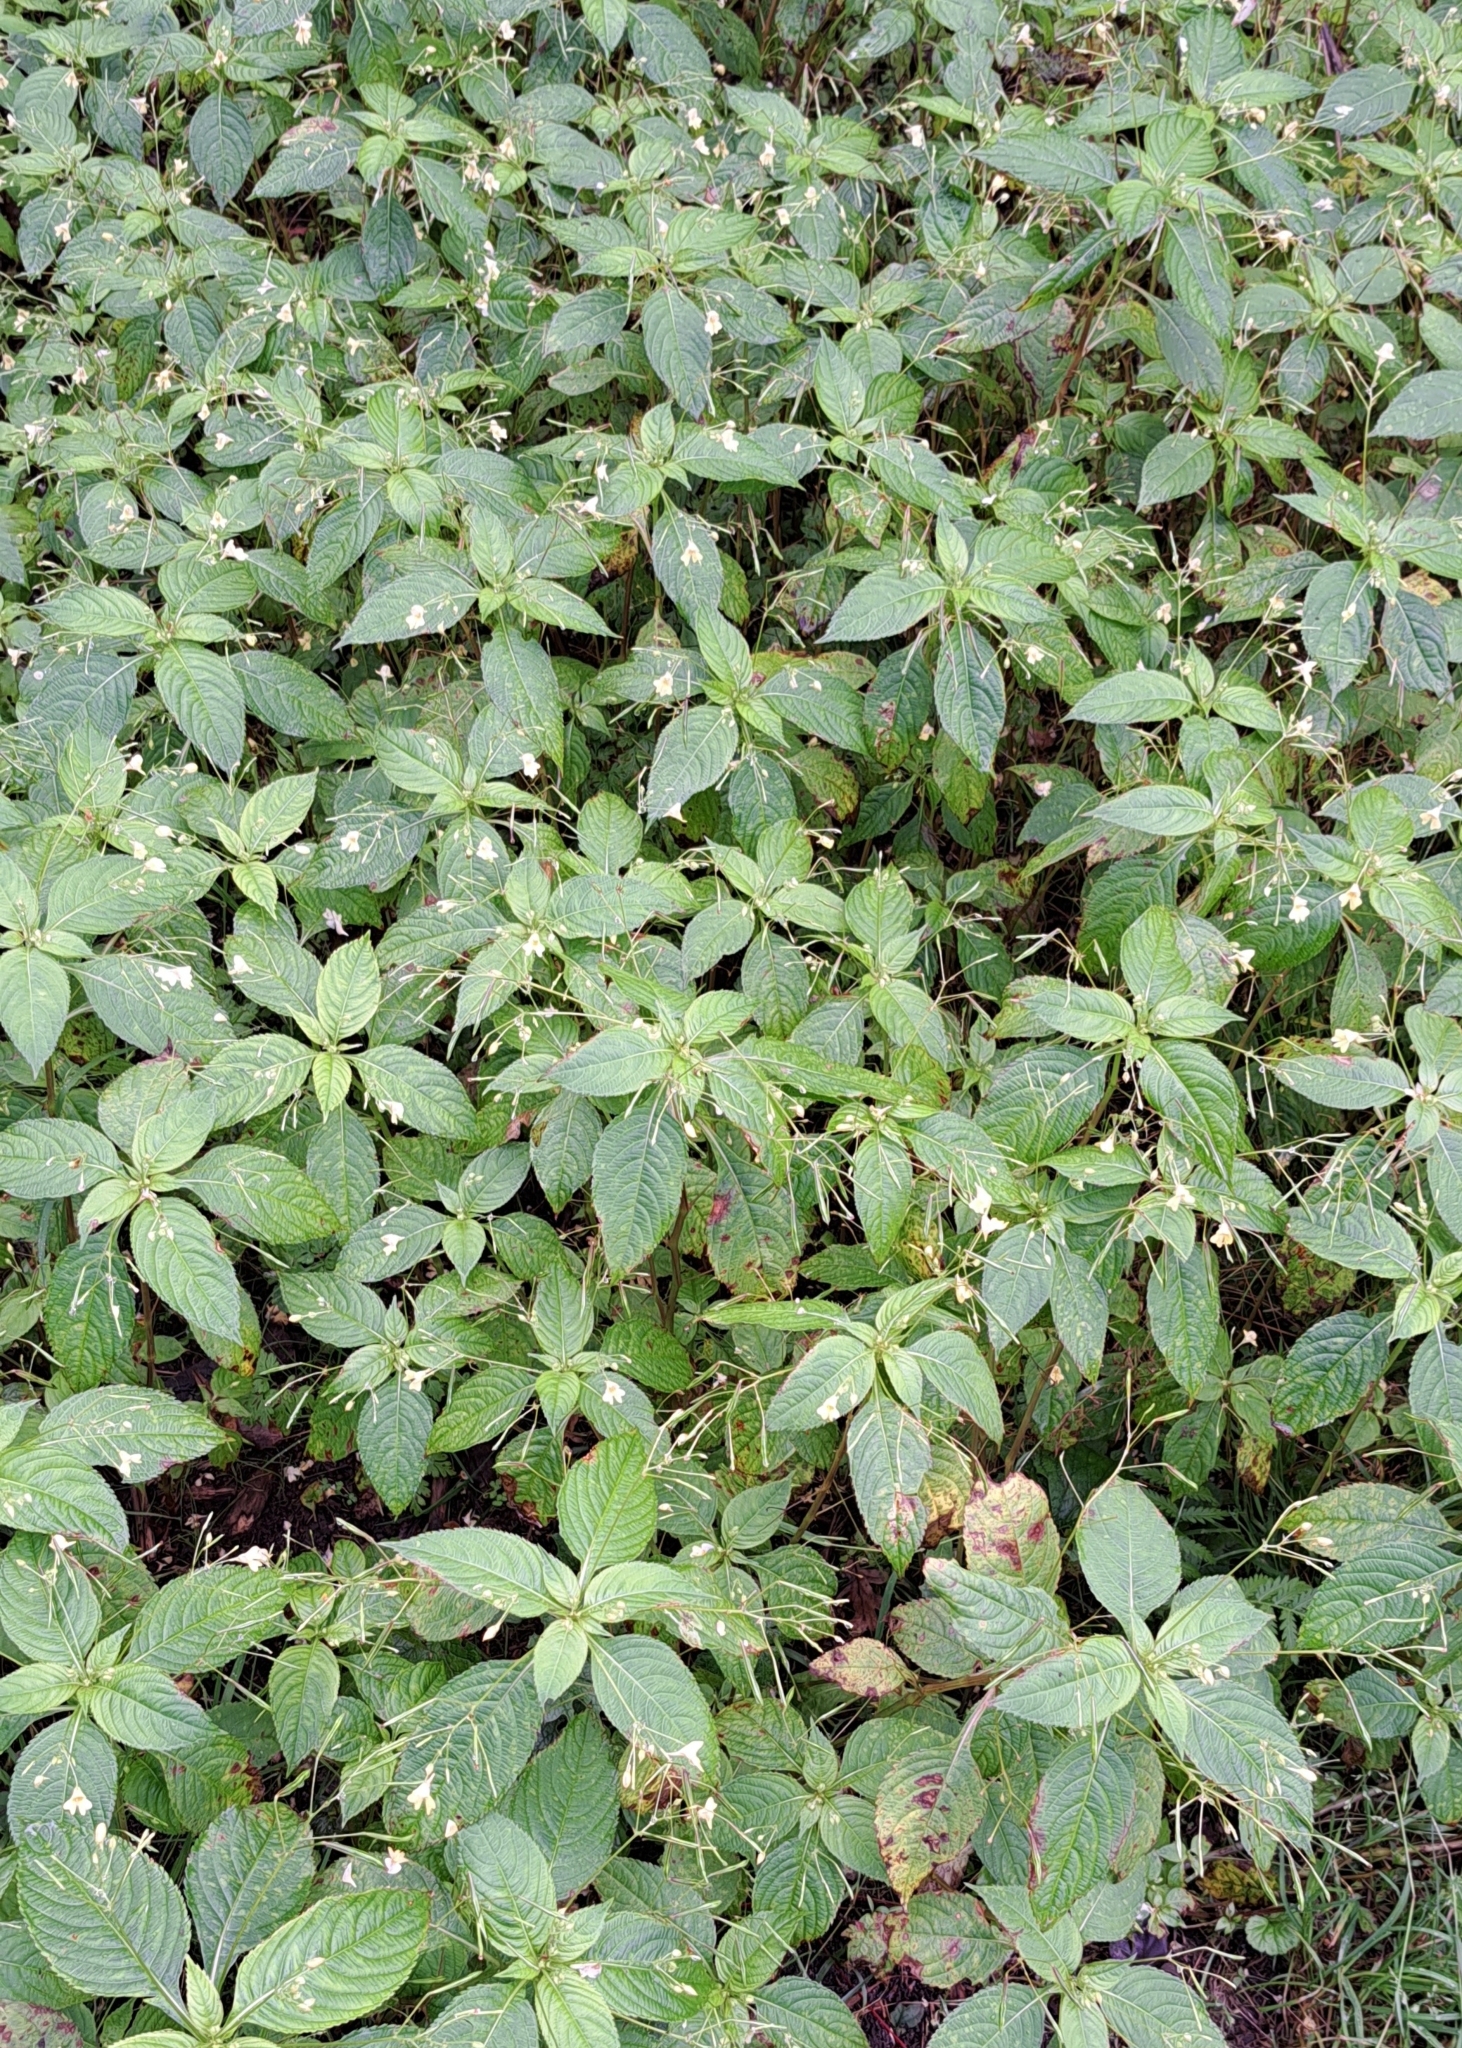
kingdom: Plantae
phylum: Tracheophyta
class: Magnoliopsida
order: Ericales
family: Balsaminaceae
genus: Impatiens
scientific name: Impatiens parviflora
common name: Small balsam
